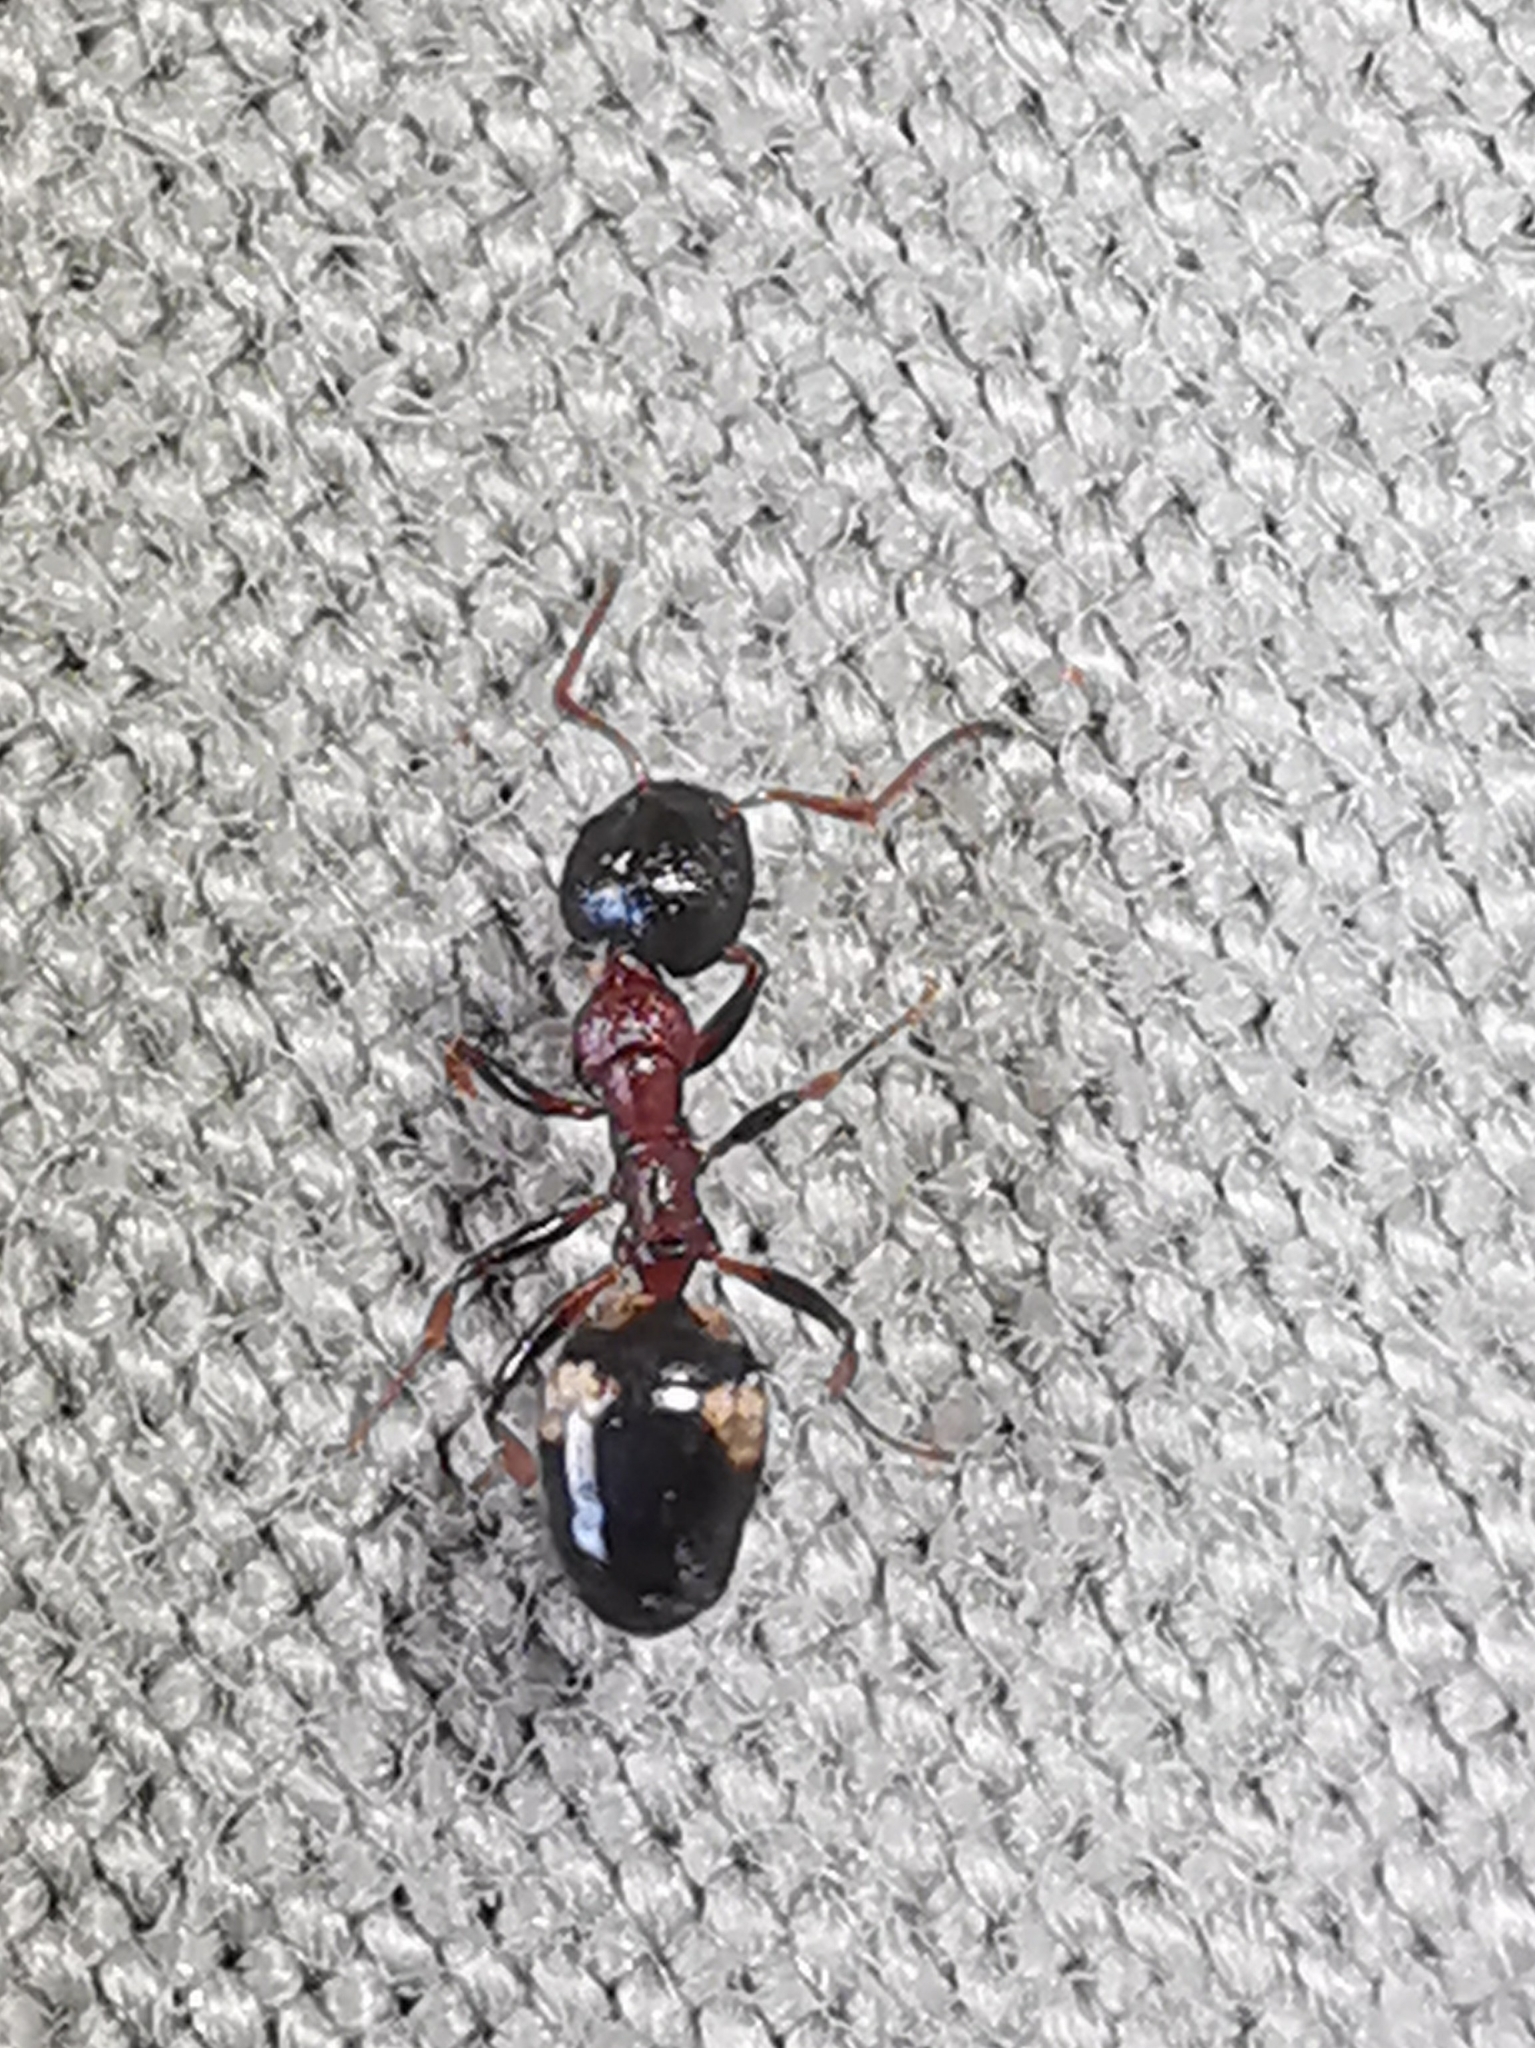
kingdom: Animalia
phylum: Arthropoda
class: Insecta
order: Hymenoptera
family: Formicidae
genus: Dolichoderus
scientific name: Dolichoderus quadripunctatus
